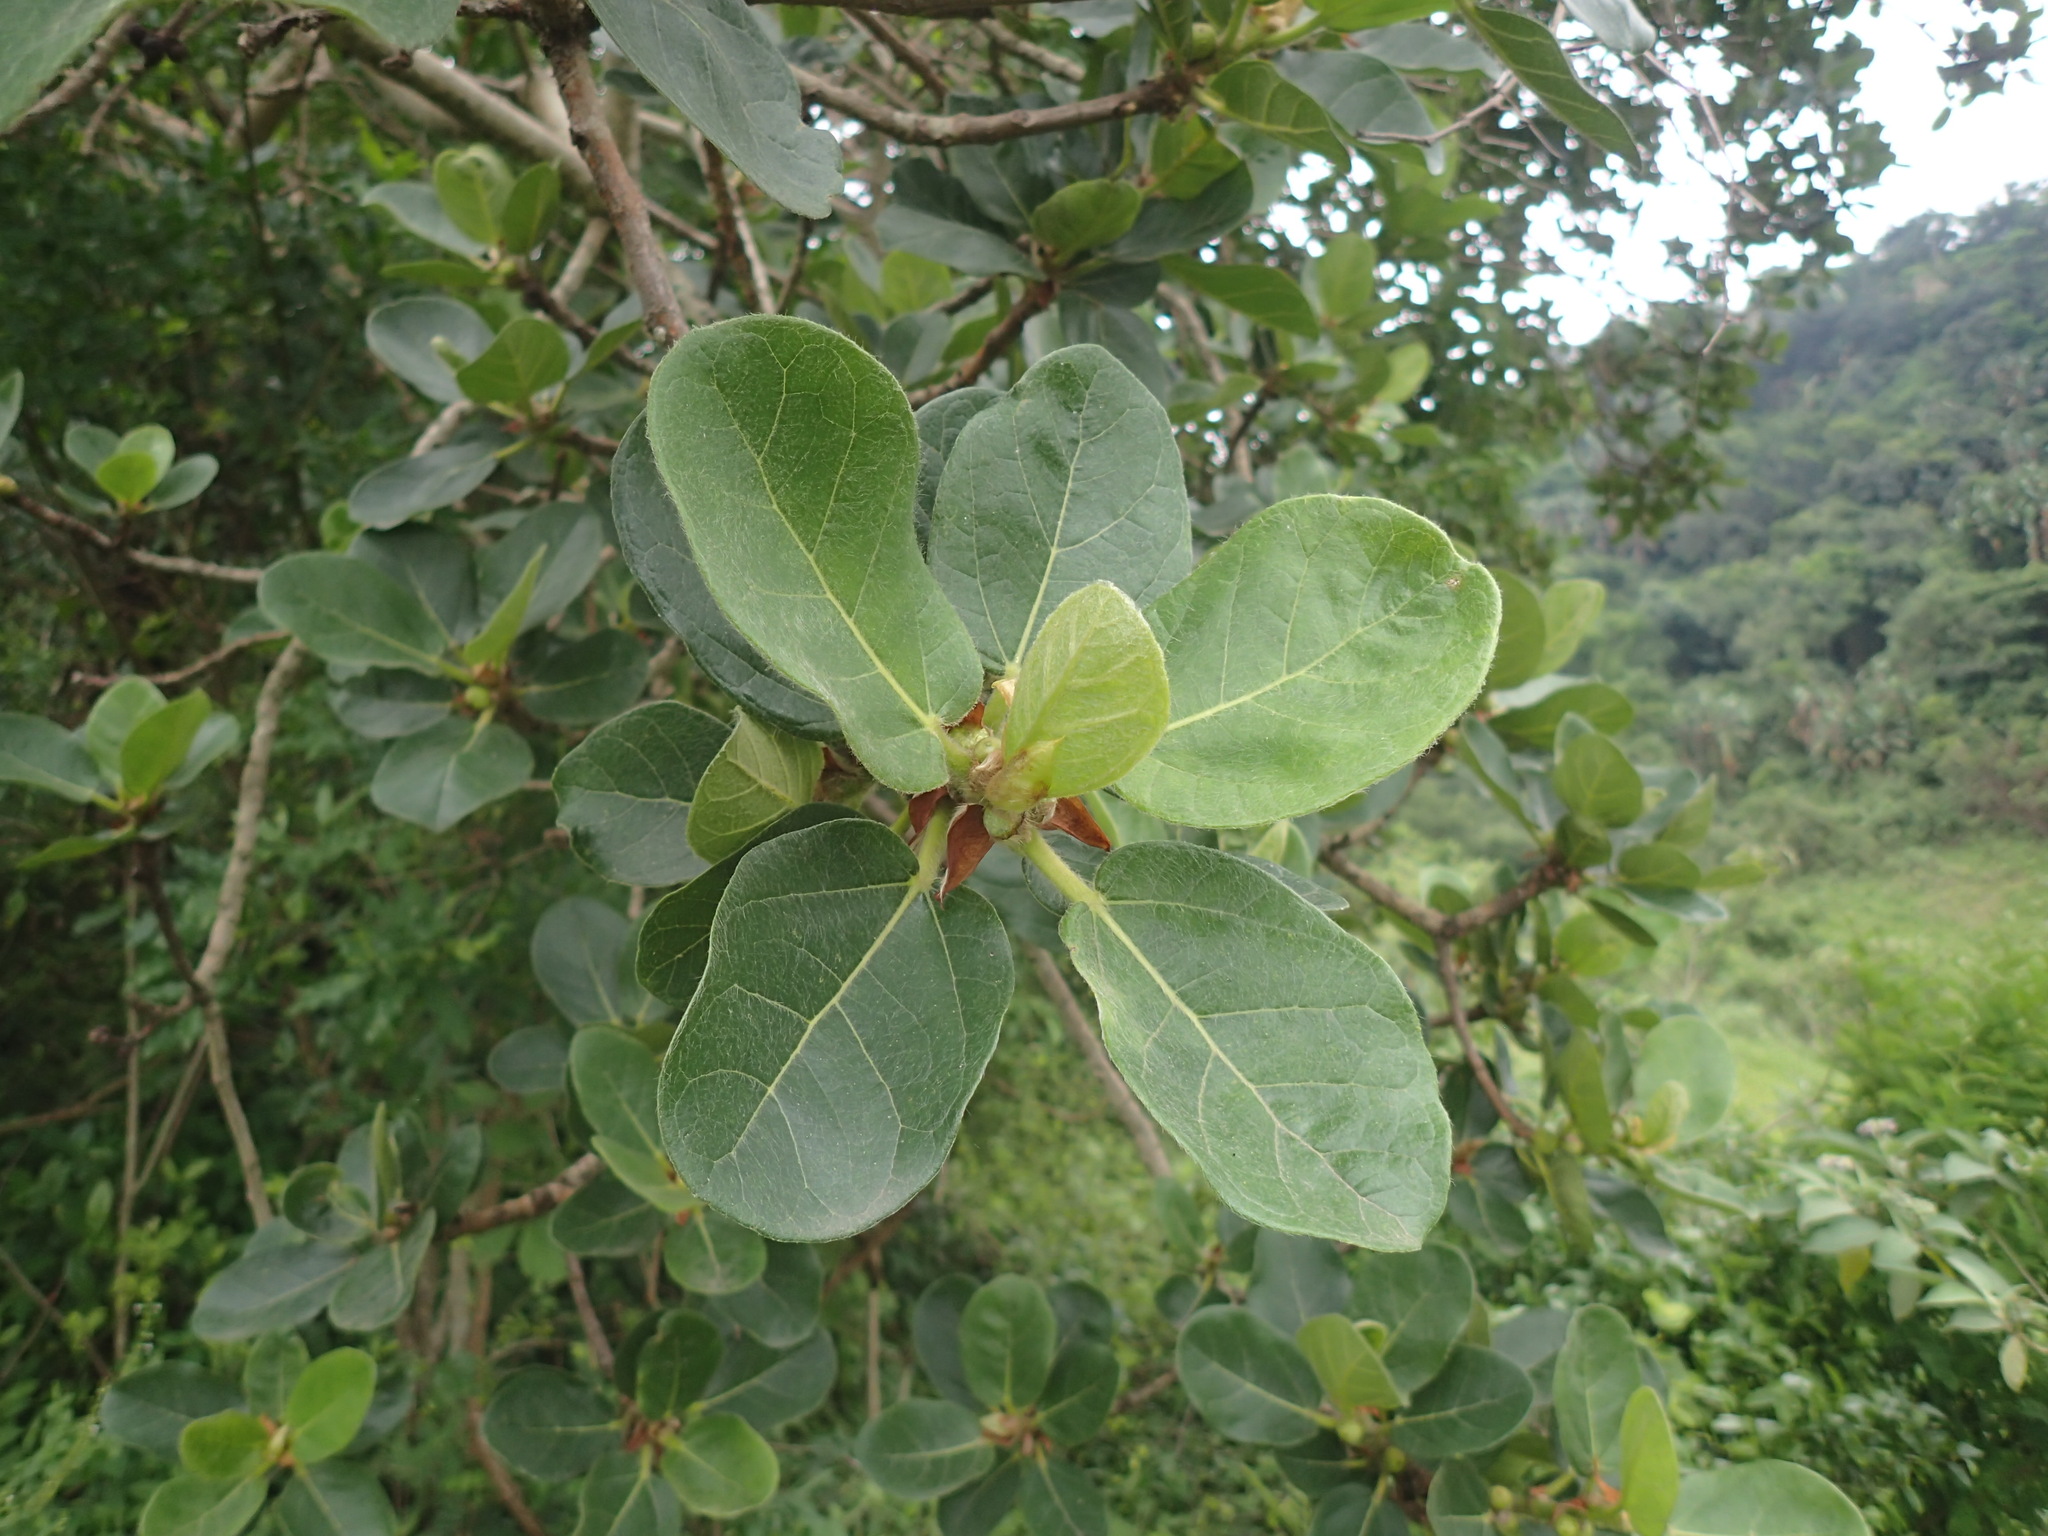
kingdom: Plantae
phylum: Tracheophyta
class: Magnoliopsida
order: Rosales
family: Moraceae
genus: Ficus
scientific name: Ficus glumosa
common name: Hairy rock fig
